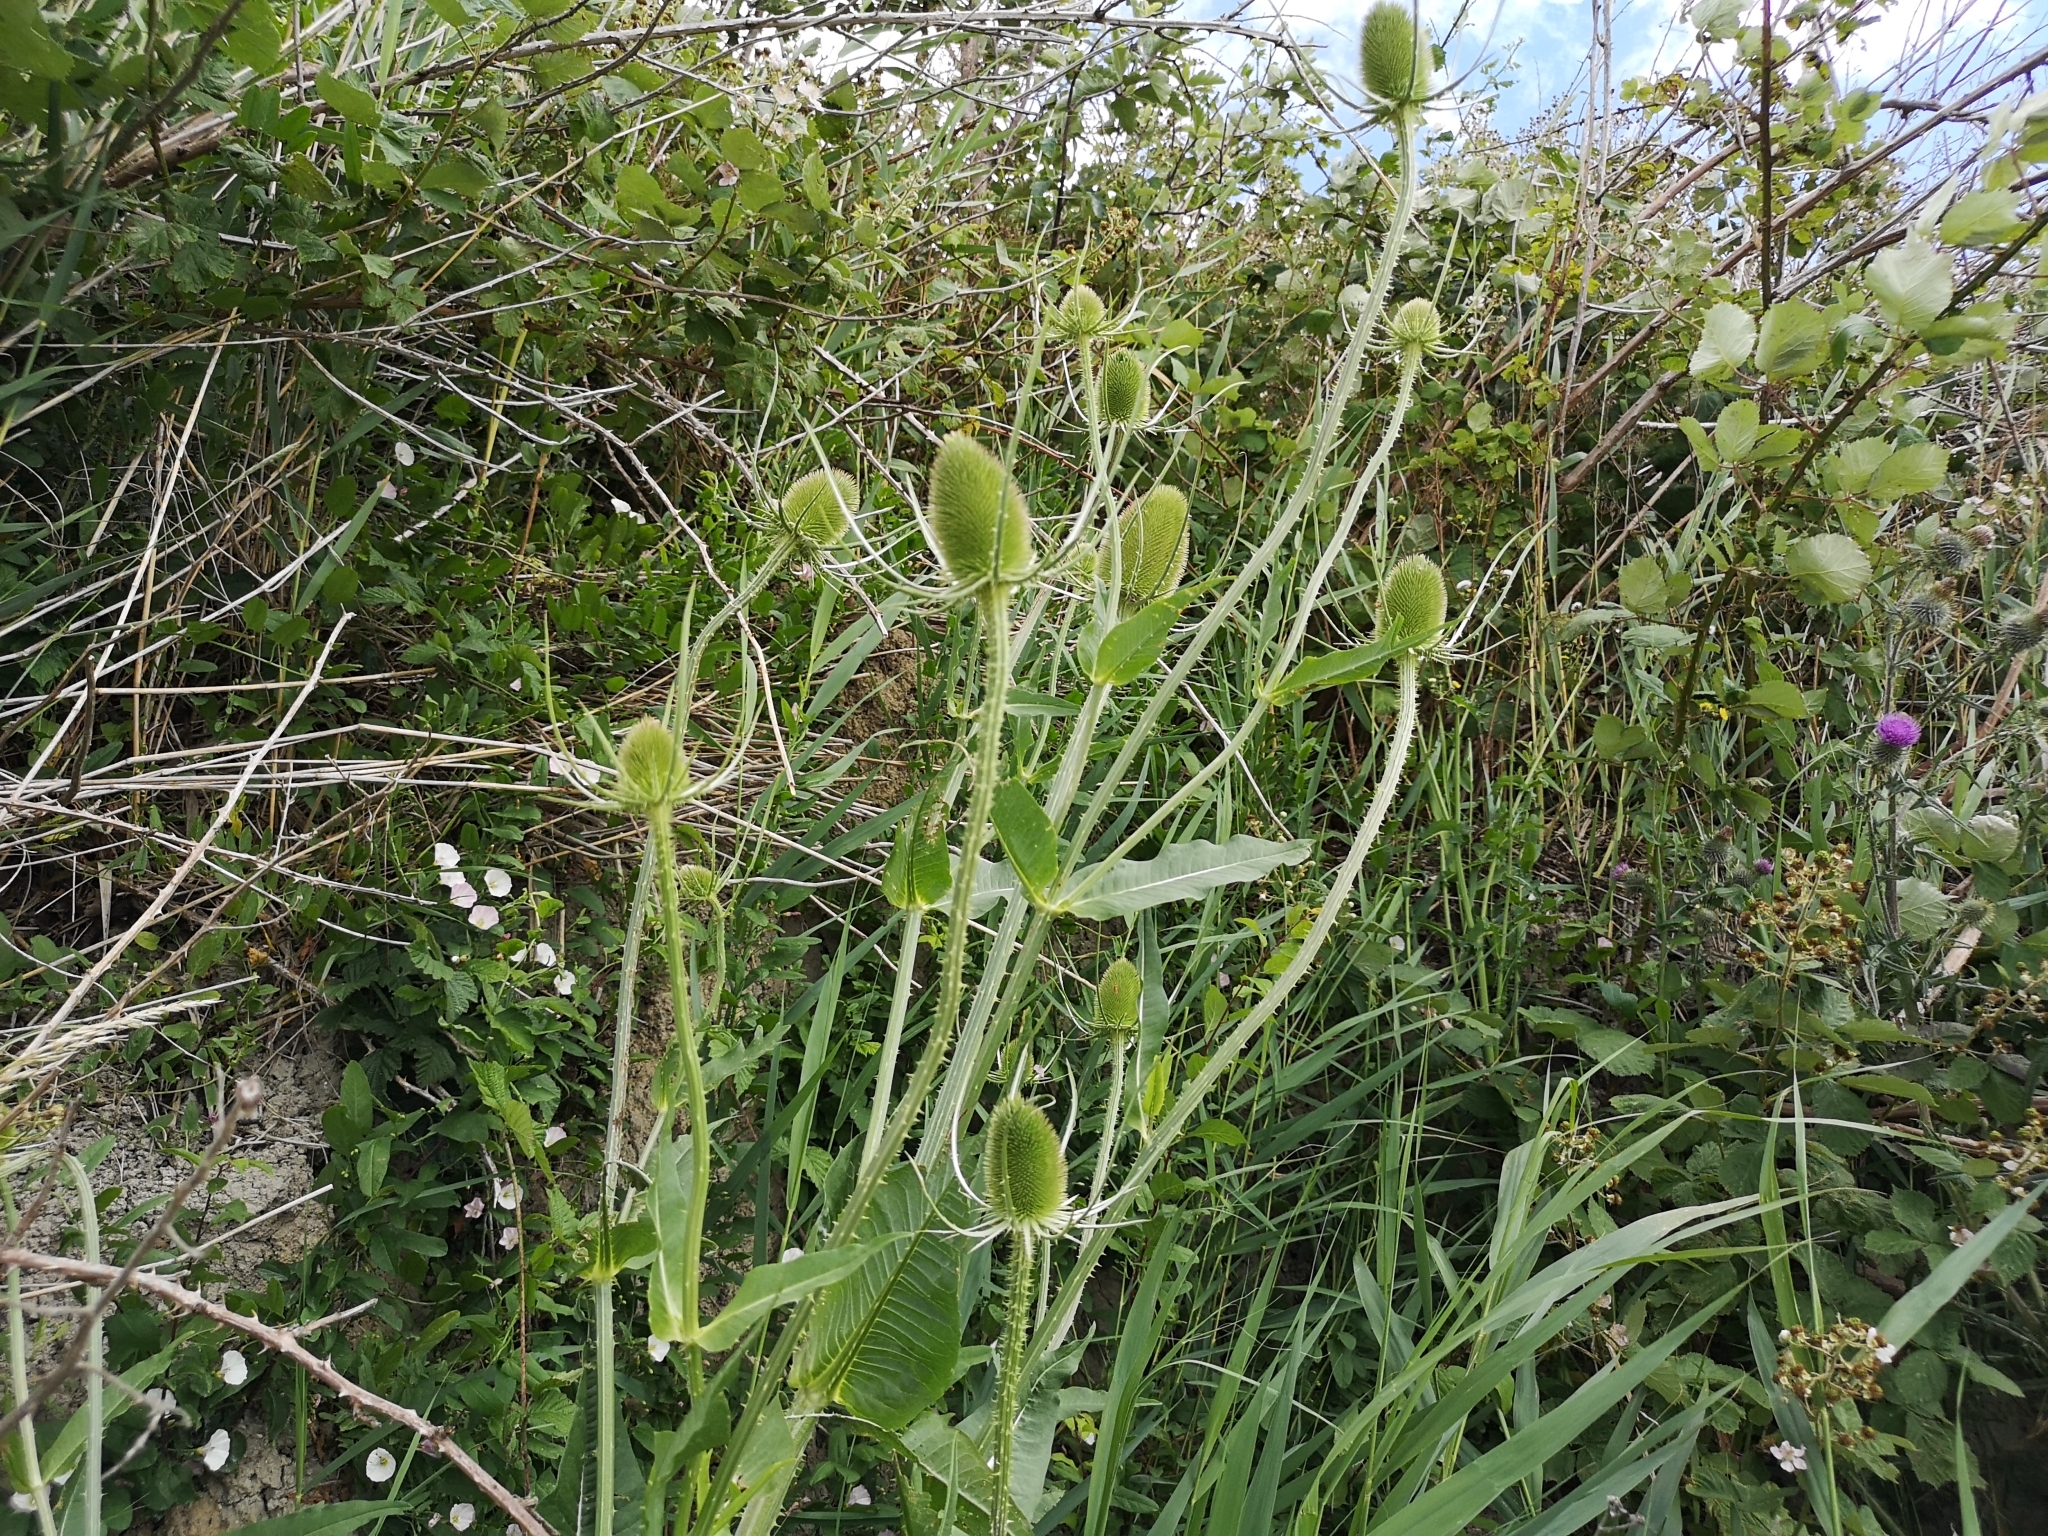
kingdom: Plantae
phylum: Tracheophyta
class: Magnoliopsida
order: Dipsacales
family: Caprifoliaceae
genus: Dipsacus
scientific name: Dipsacus fullonum
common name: Teasel
